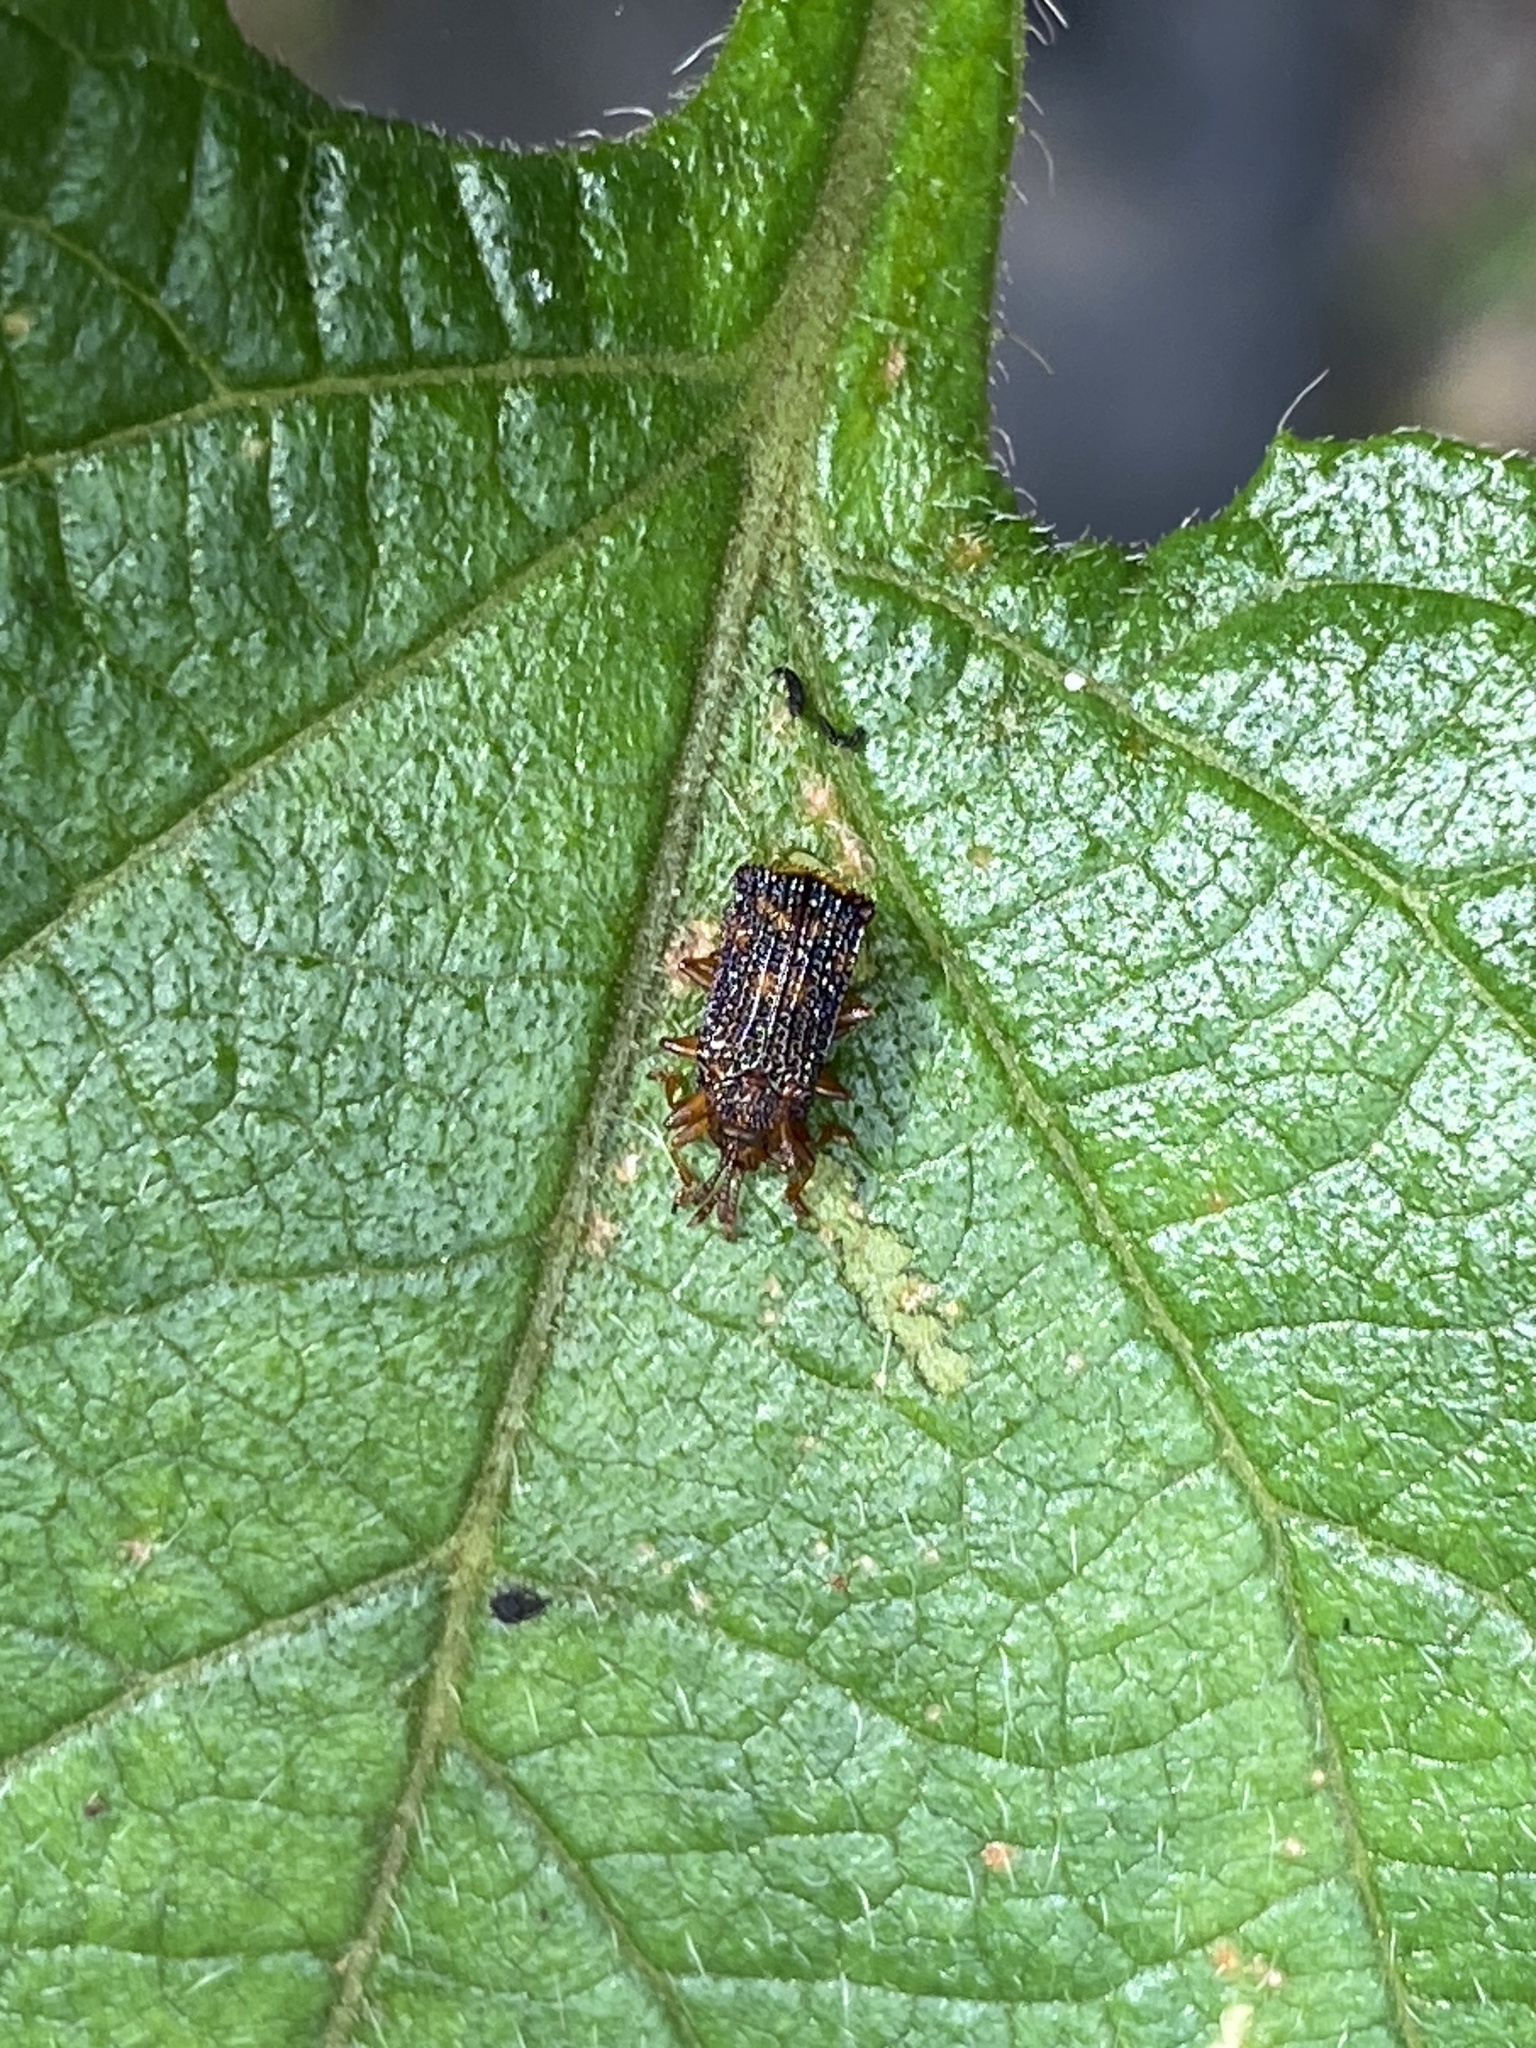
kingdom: Animalia
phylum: Arthropoda
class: Insecta
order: Coleoptera
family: Chrysomelidae
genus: Uroplata
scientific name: Uroplata girardi
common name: Lantana leafminer
